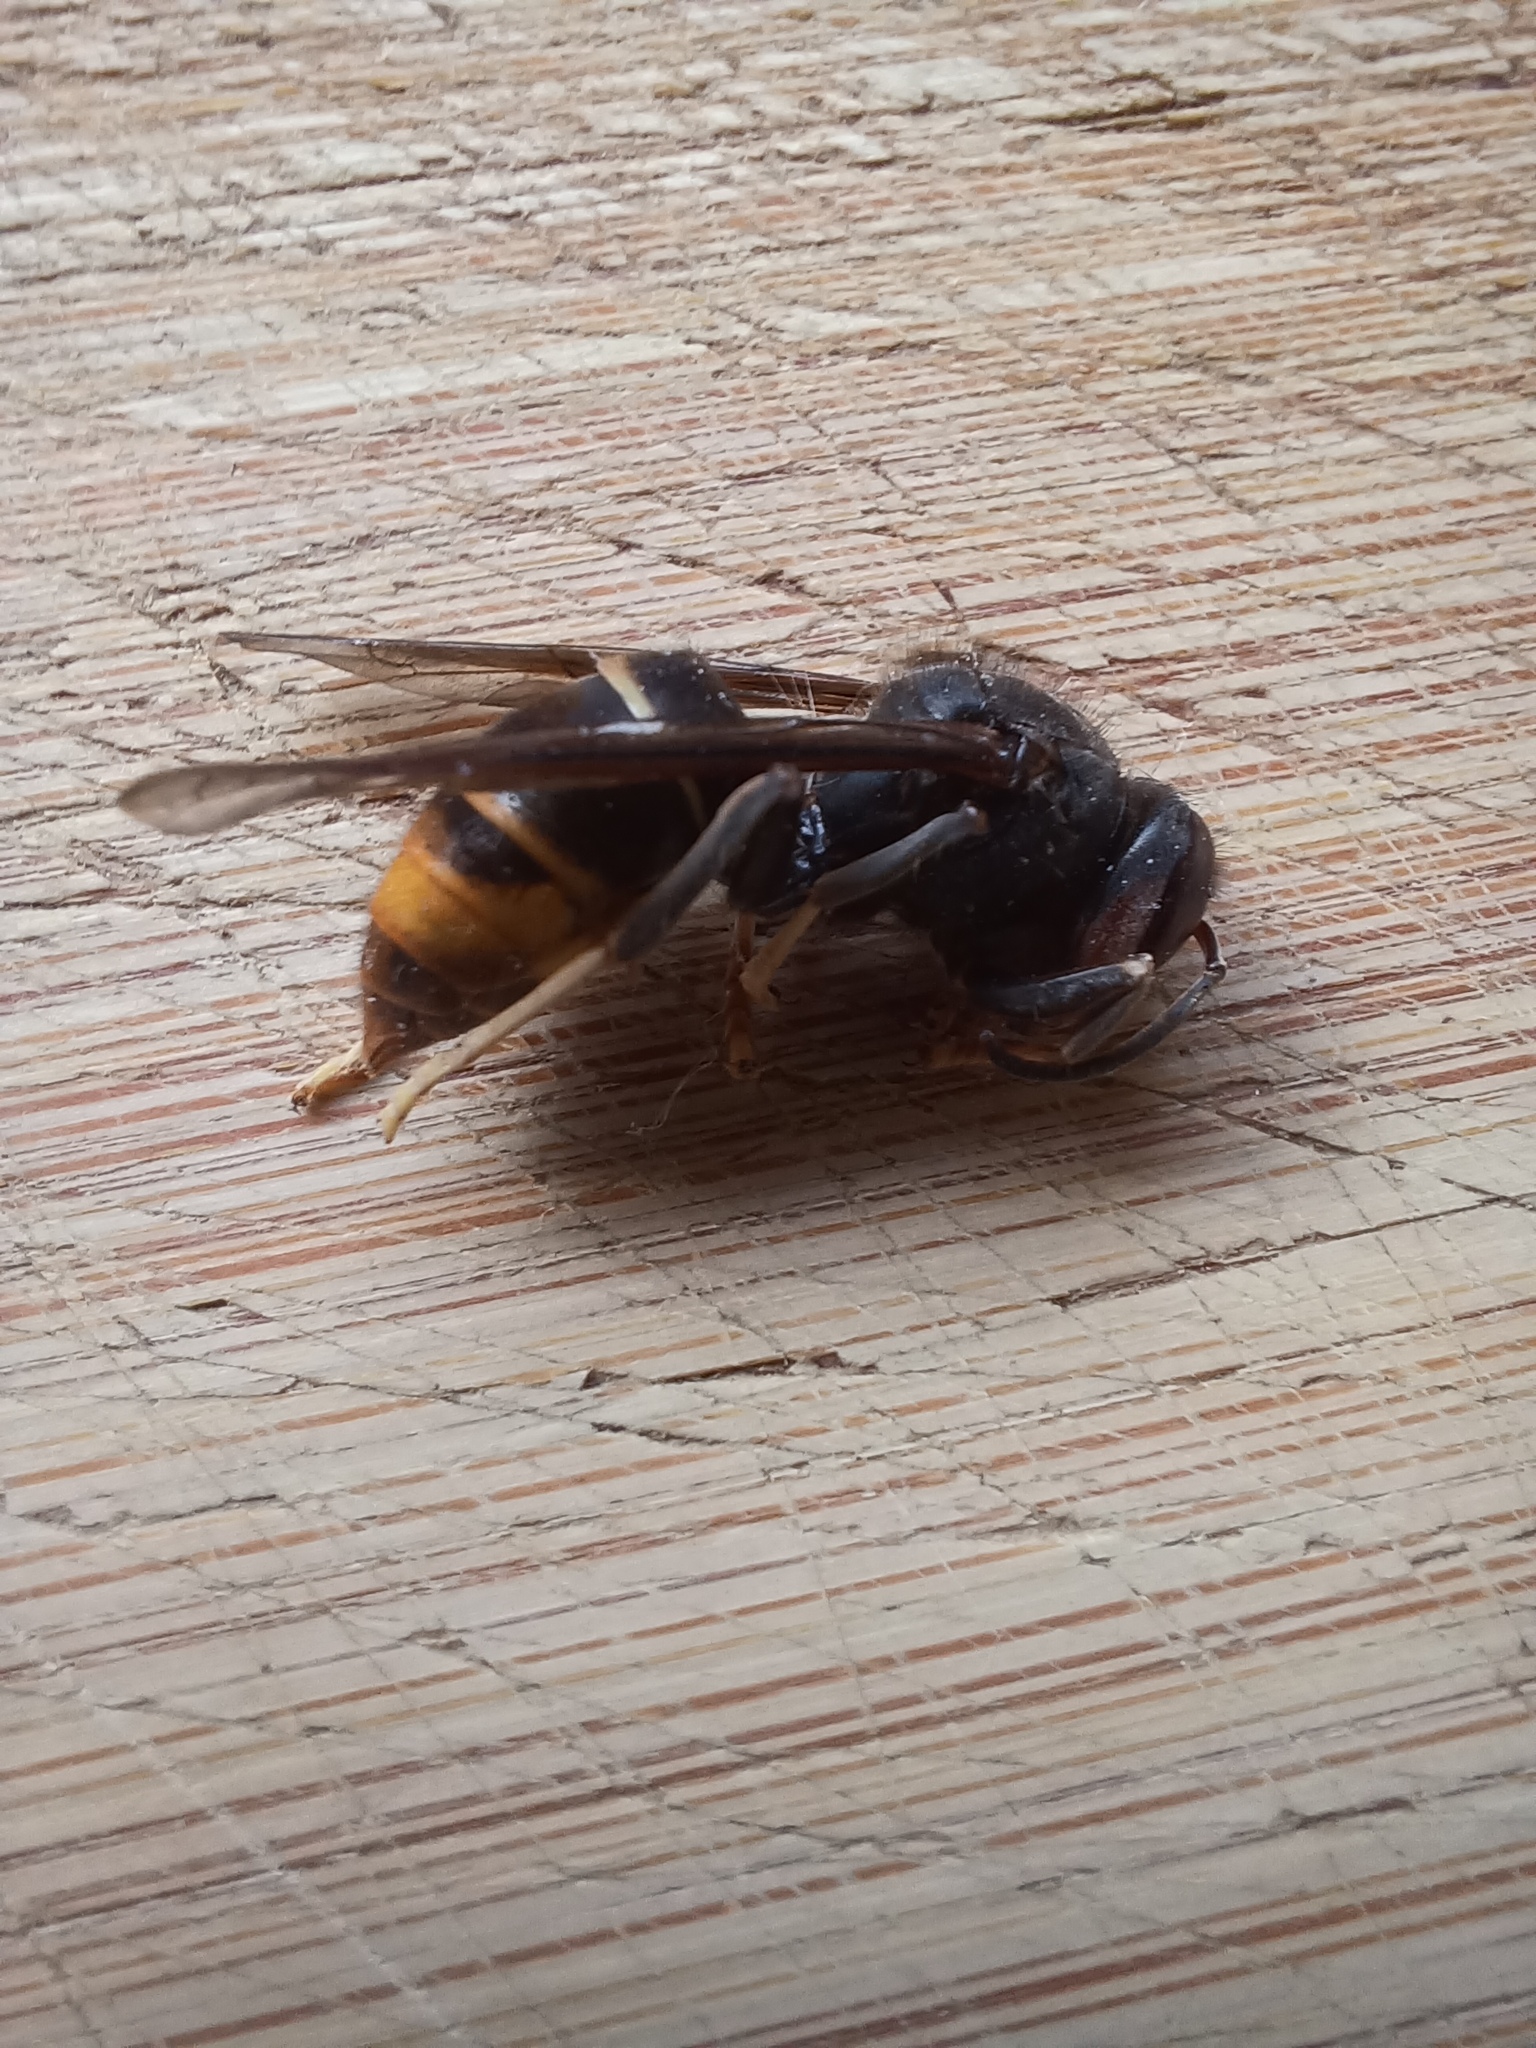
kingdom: Animalia
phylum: Arthropoda
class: Insecta
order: Hymenoptera
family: Vespidae
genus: Vespa
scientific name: Vespa velutina
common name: Asian hornet
